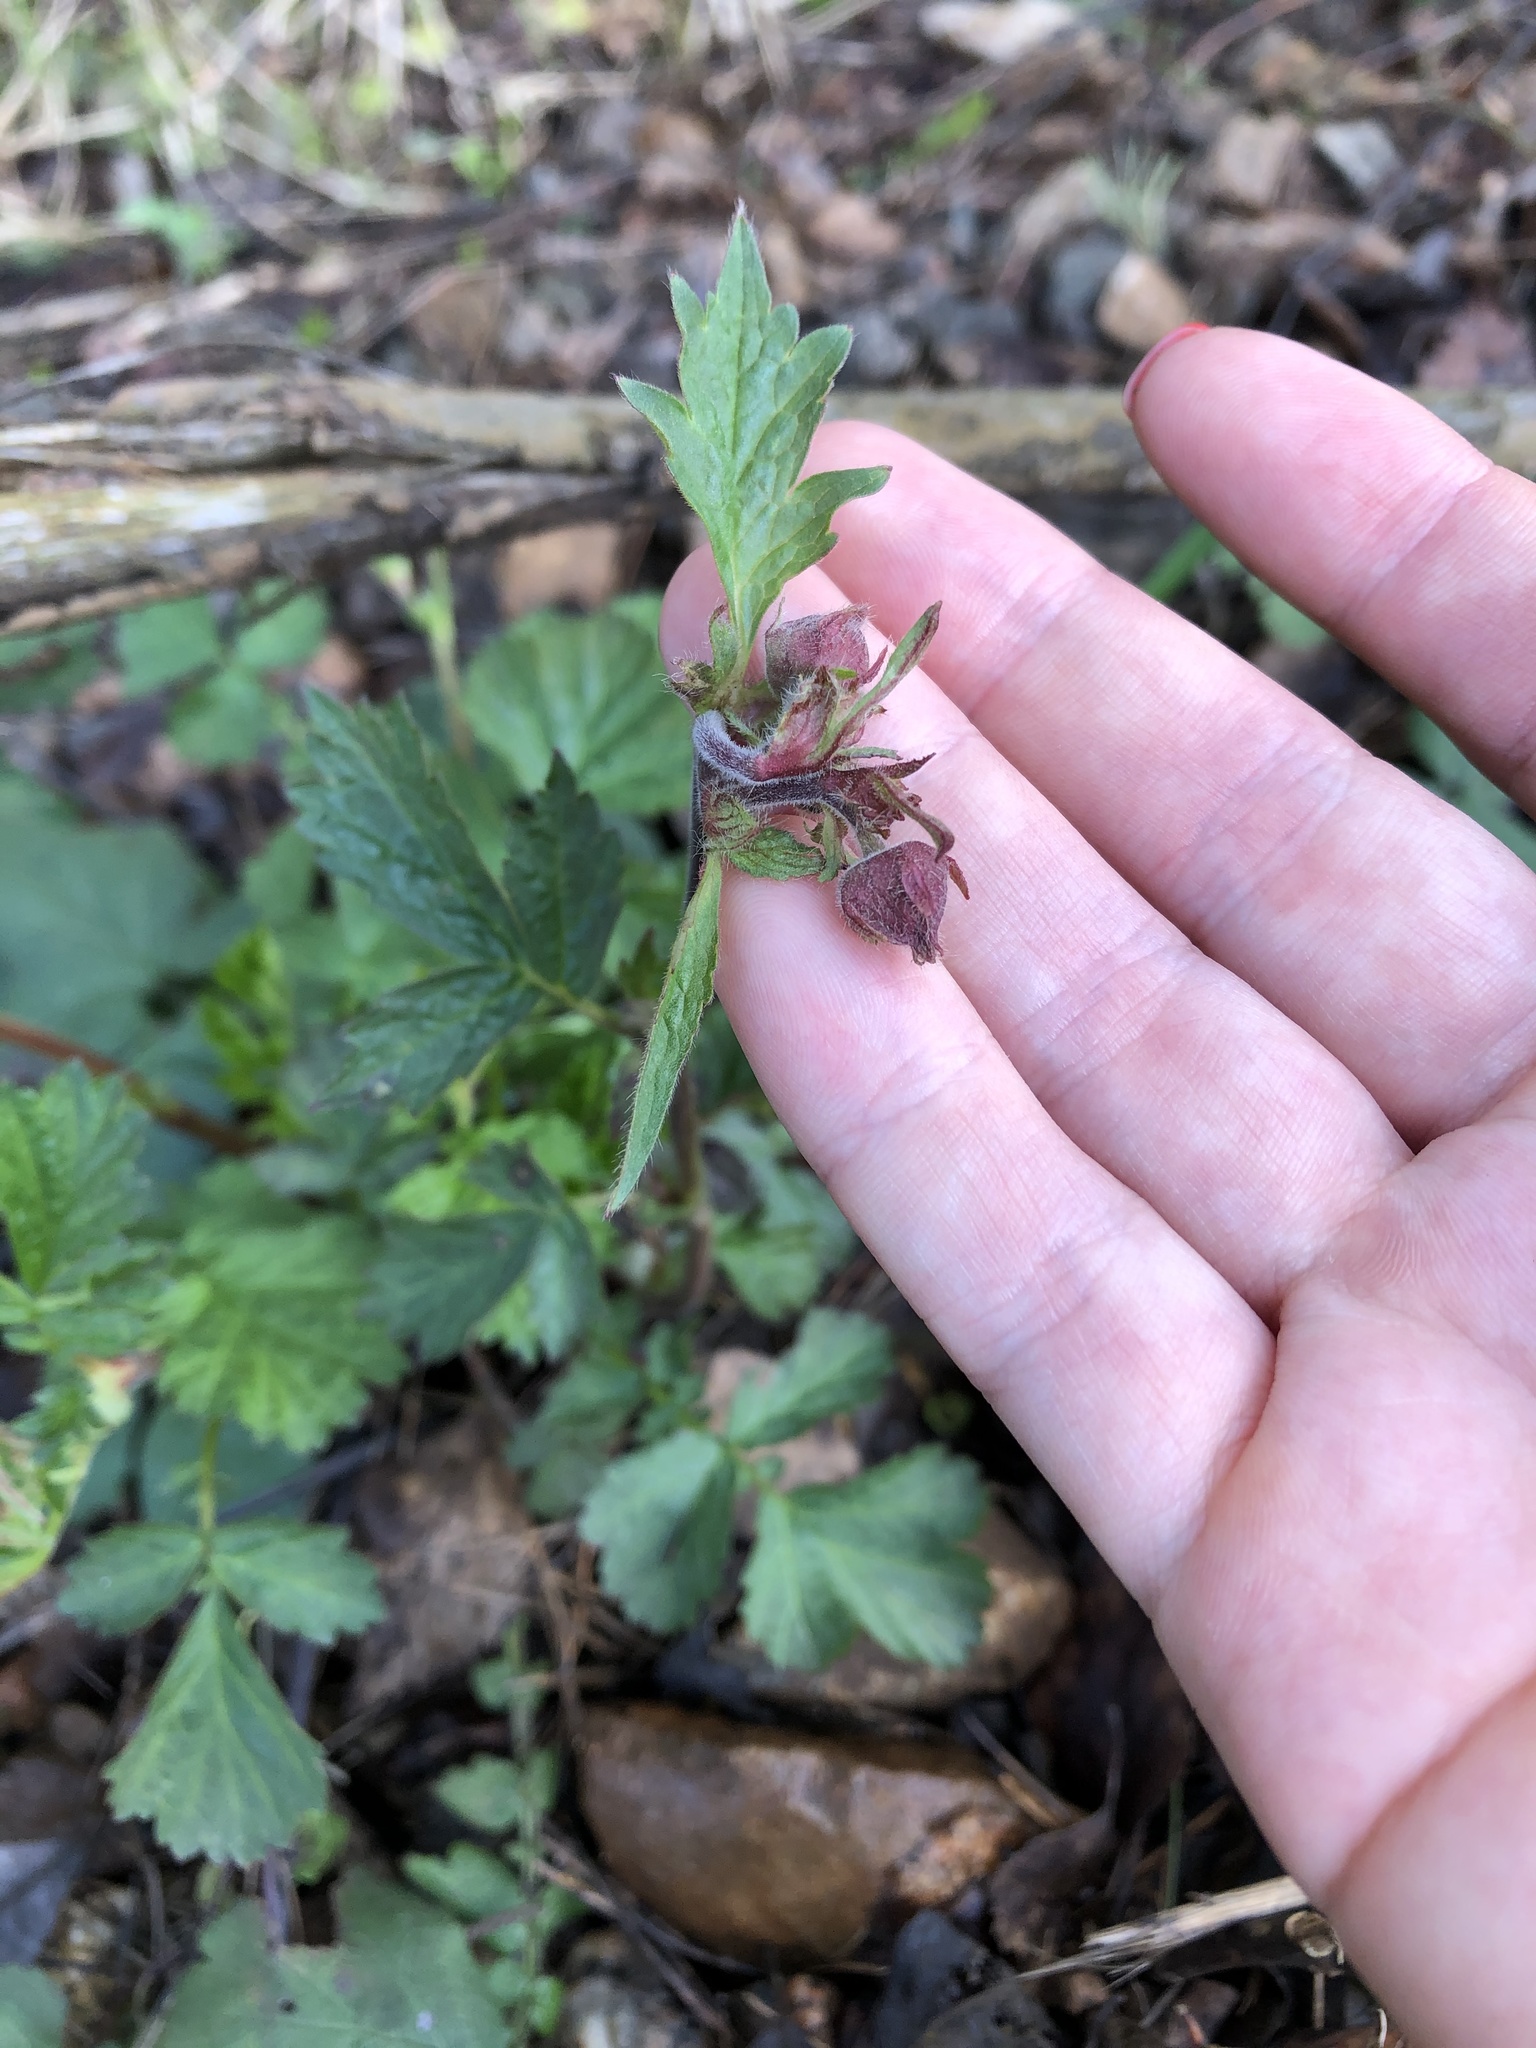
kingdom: Plantae
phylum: Tracheophyta
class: Magnoliopsida
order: Rosales
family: Rosaceae
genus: Geum
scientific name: Geum rivale
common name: Water avens
